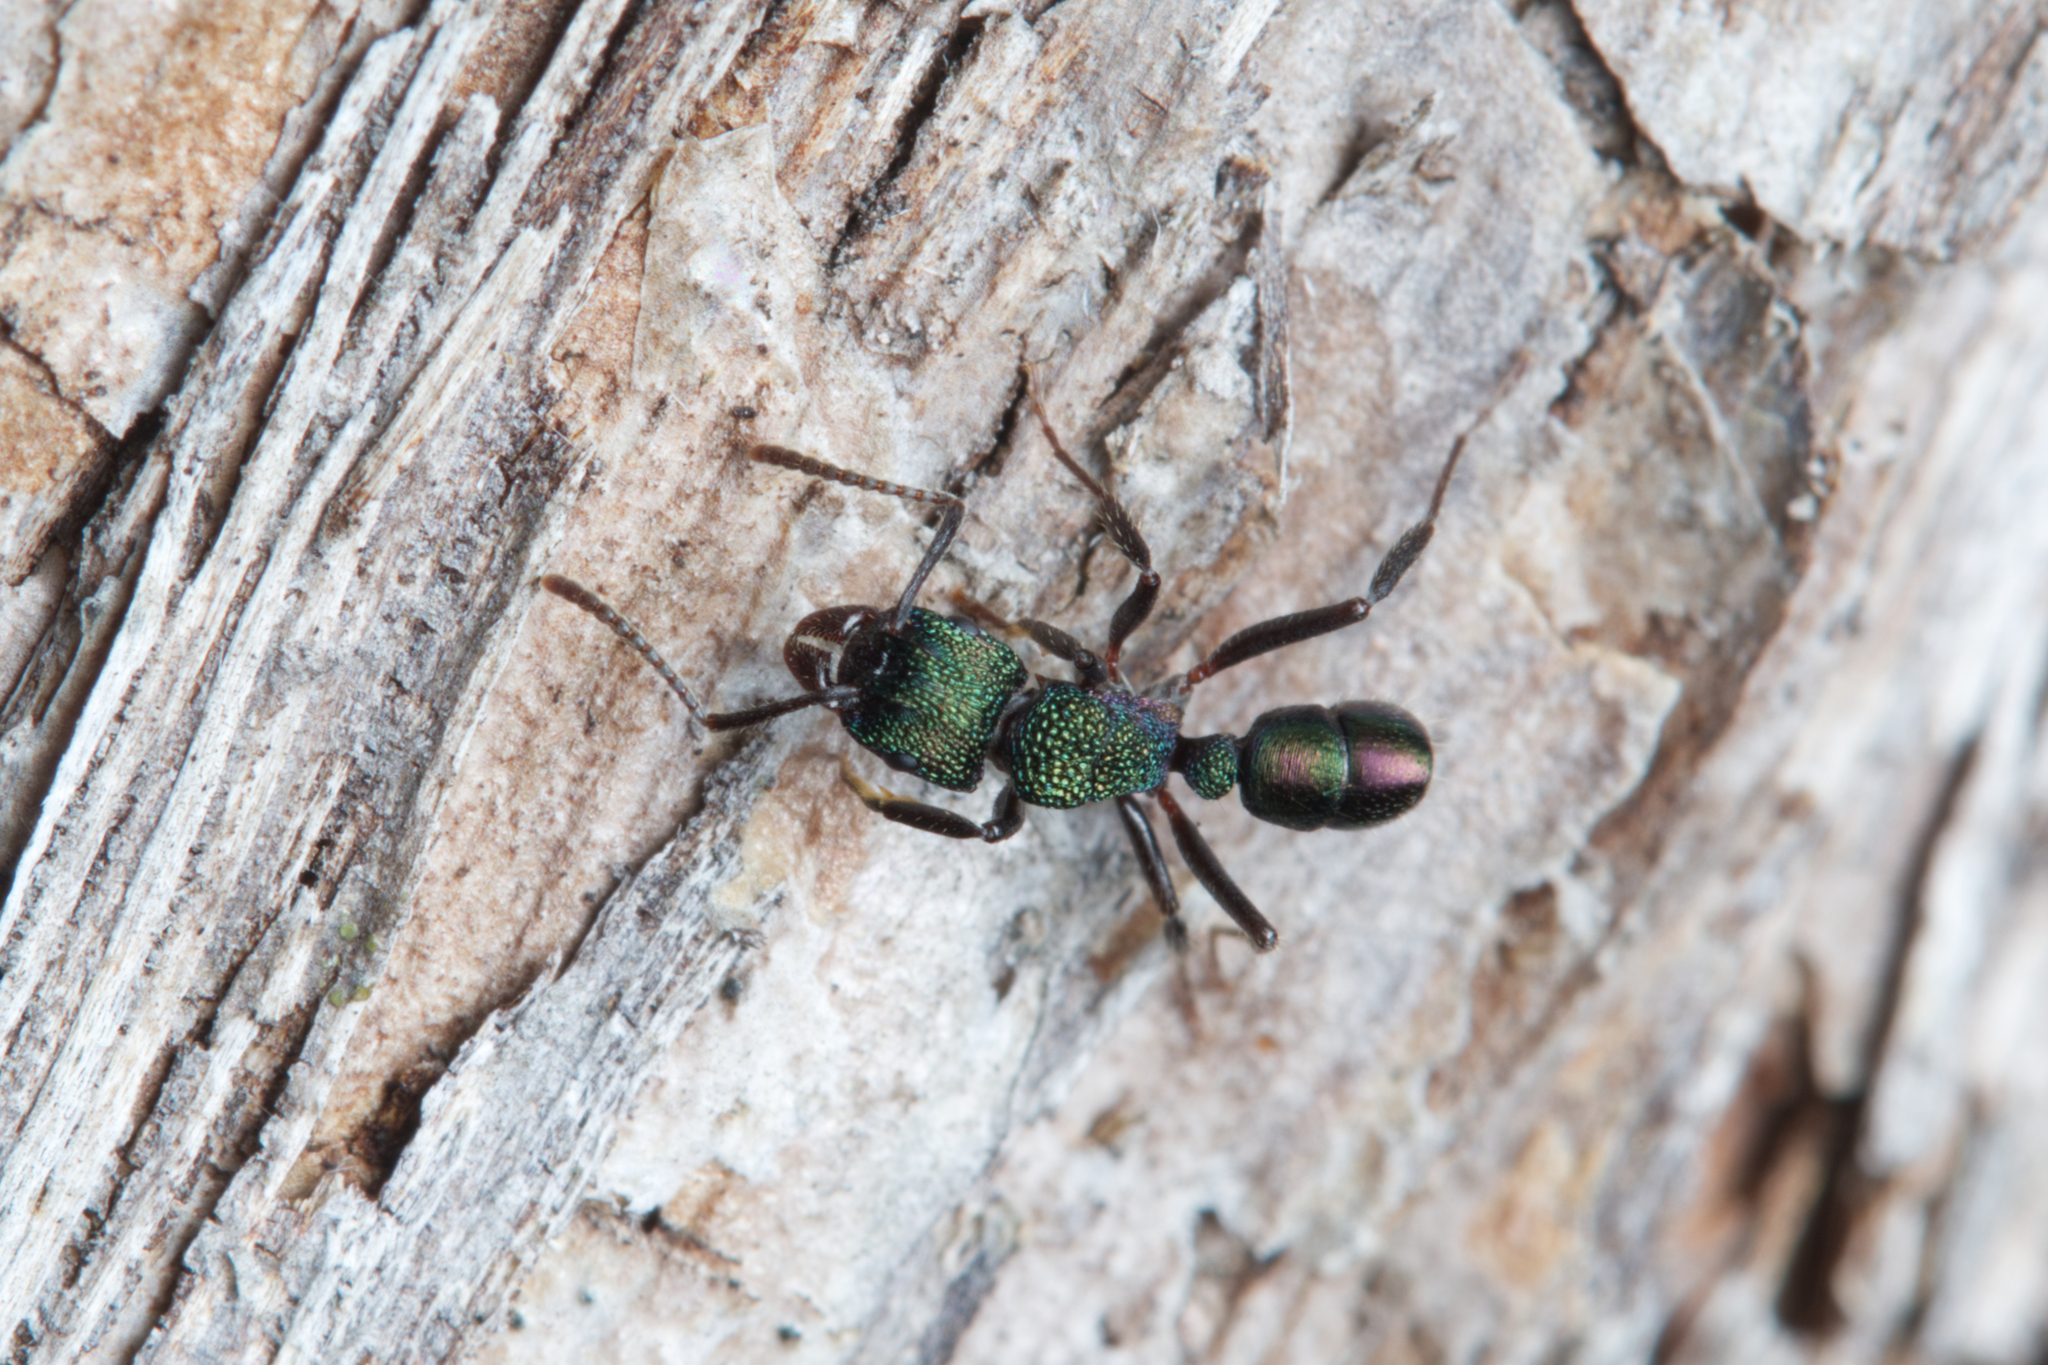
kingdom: Animalia
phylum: Arthropoda
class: Insecta
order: Hymenoptera
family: Formicidae
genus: Rhytidoponera
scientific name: Rhytidoponera metallica
